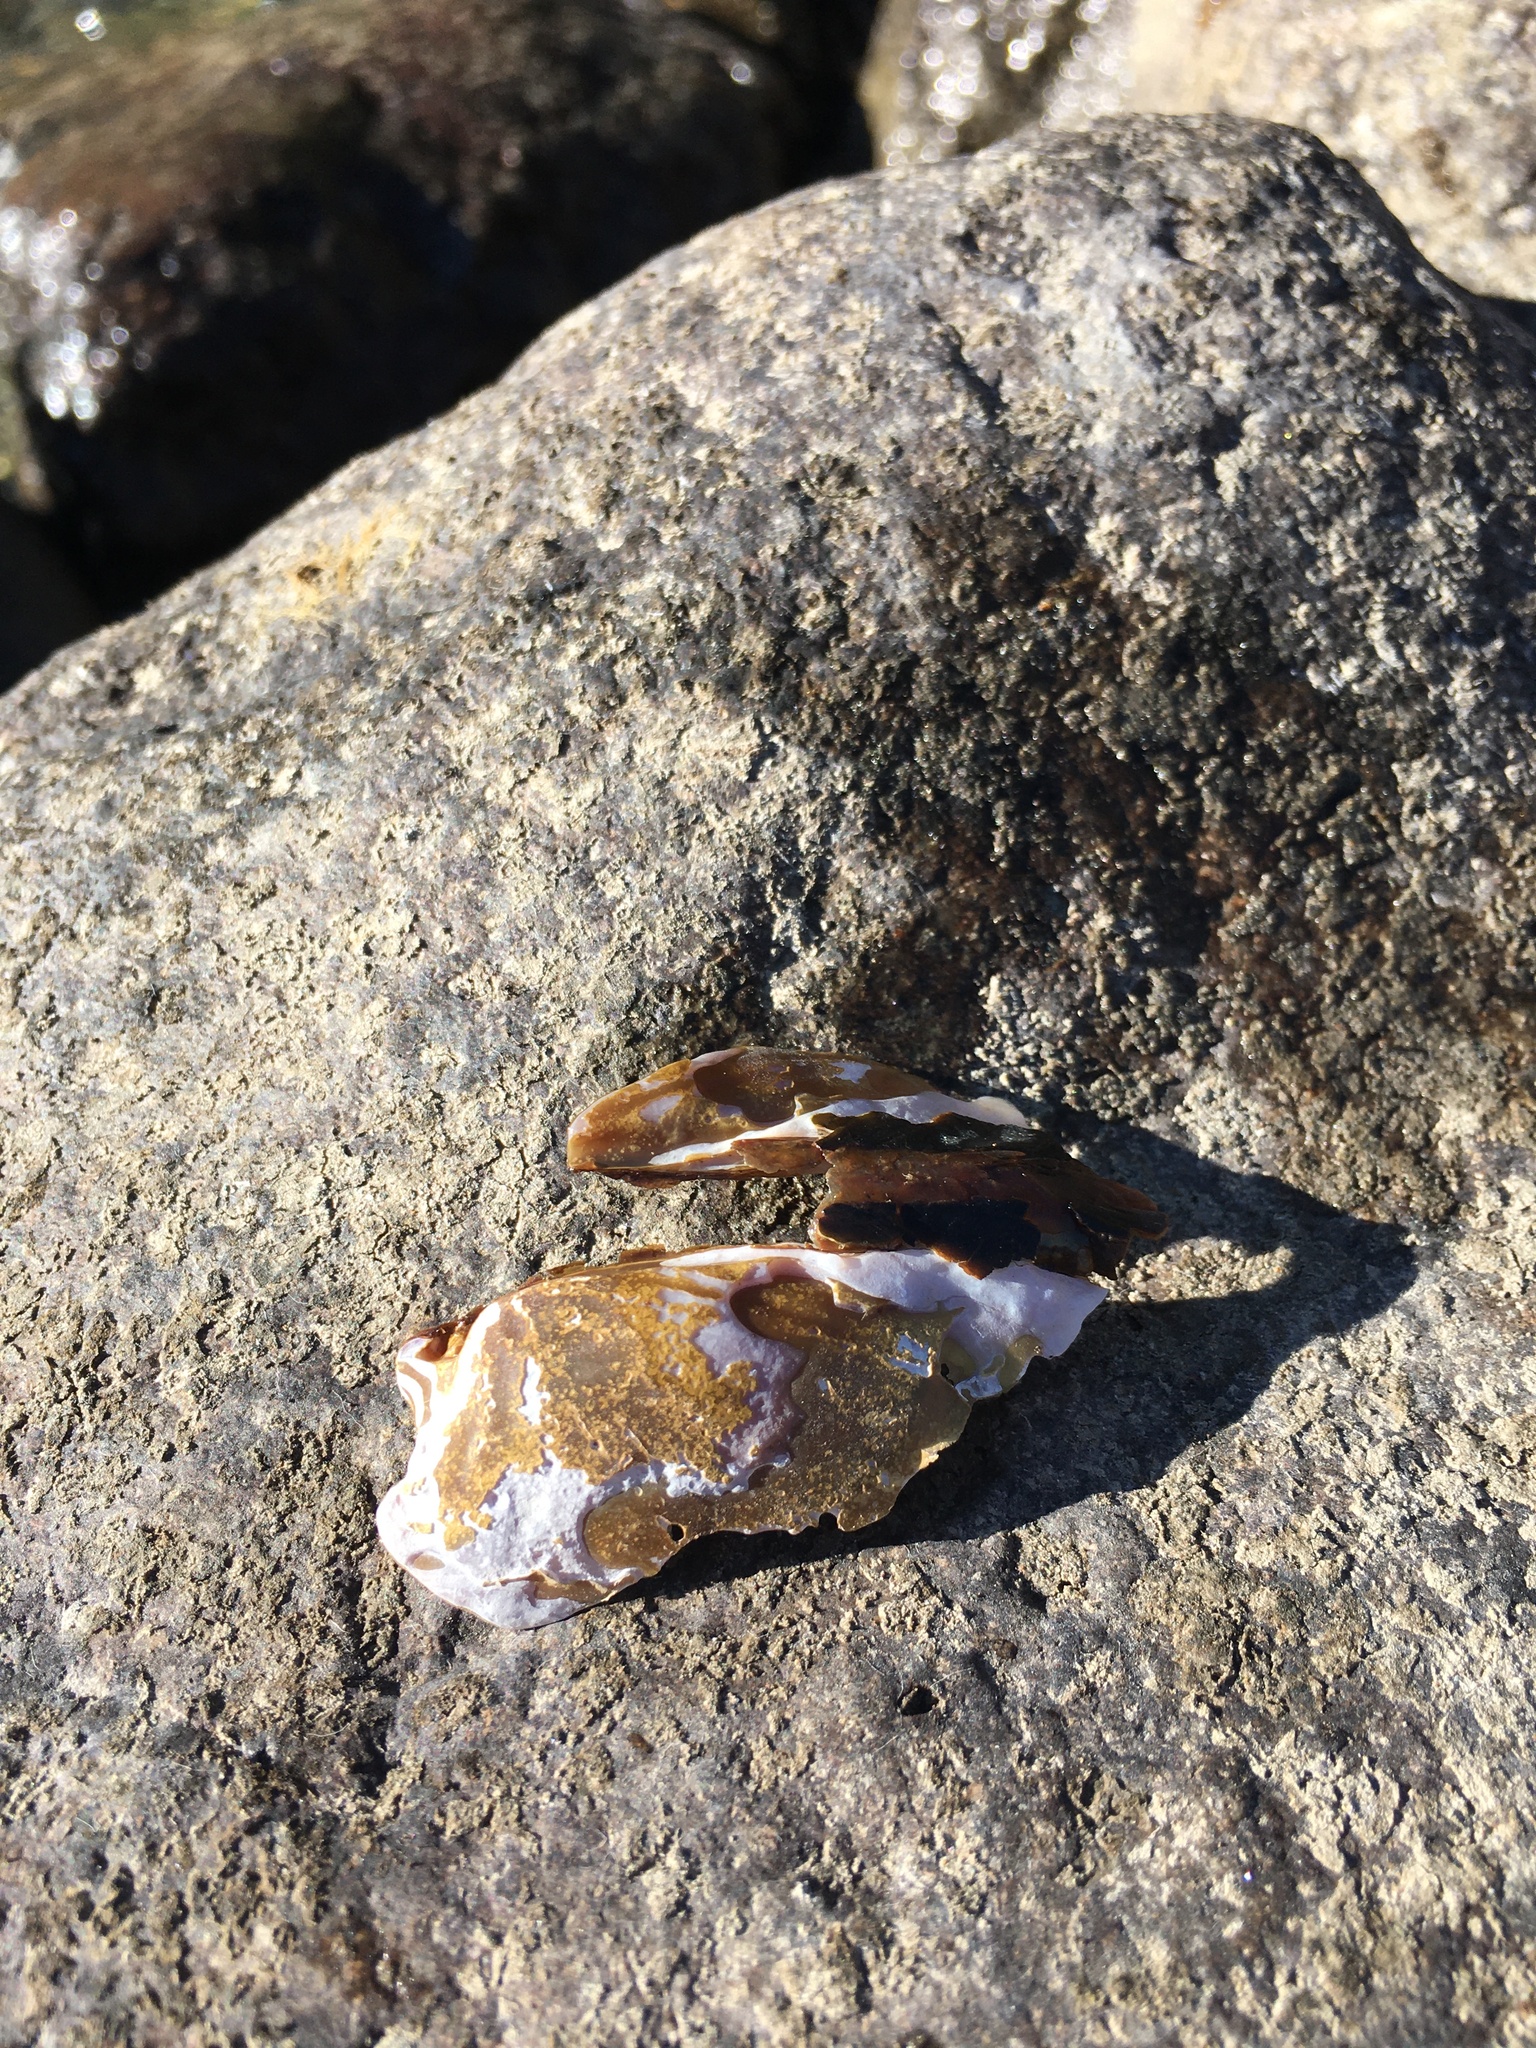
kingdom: Animalia
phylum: Mollusca
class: Bivalvia
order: Unionida
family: Margaritiferidae
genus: Margaritifera
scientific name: Margaritifera falcata
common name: Western pearlshell
